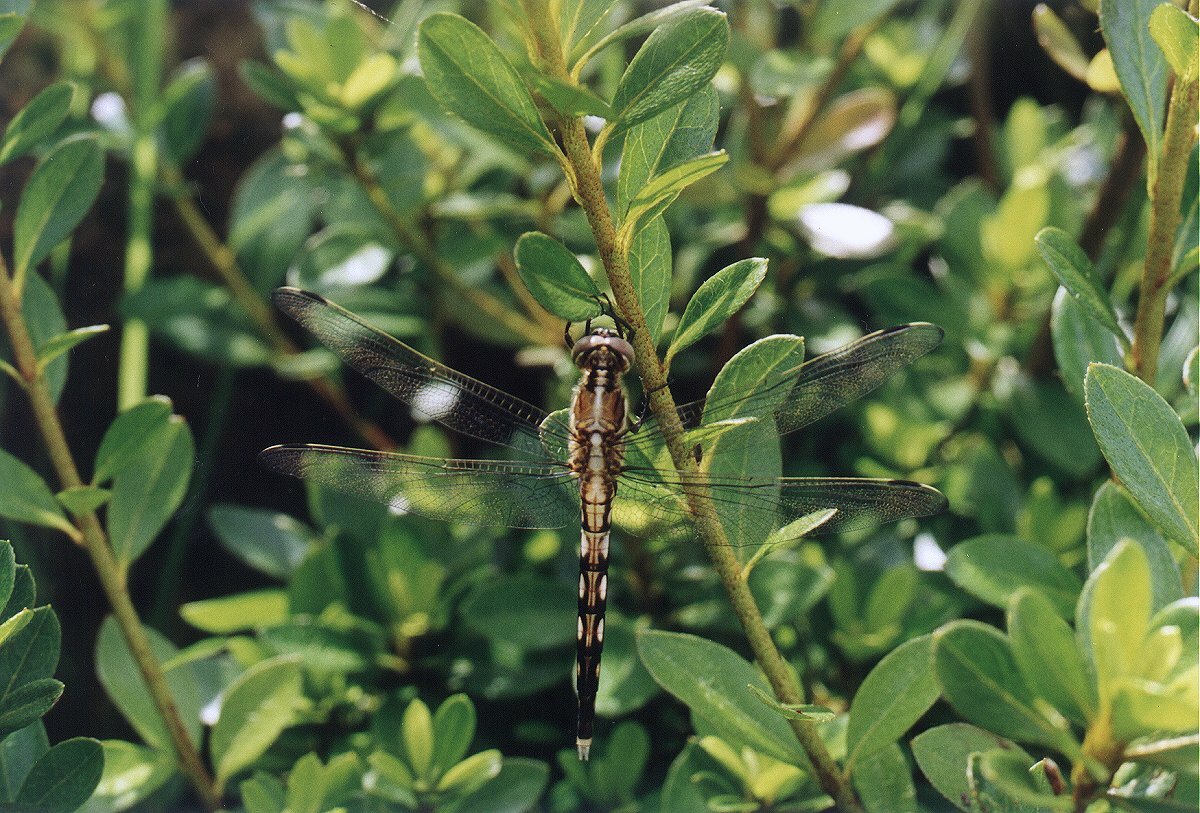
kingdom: Animalia
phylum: Arthropoda
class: Insecta
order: Odonata
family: Libellulidae
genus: Orthetrum
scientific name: Orthetrum albistylum
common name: White-tailed skimmer
